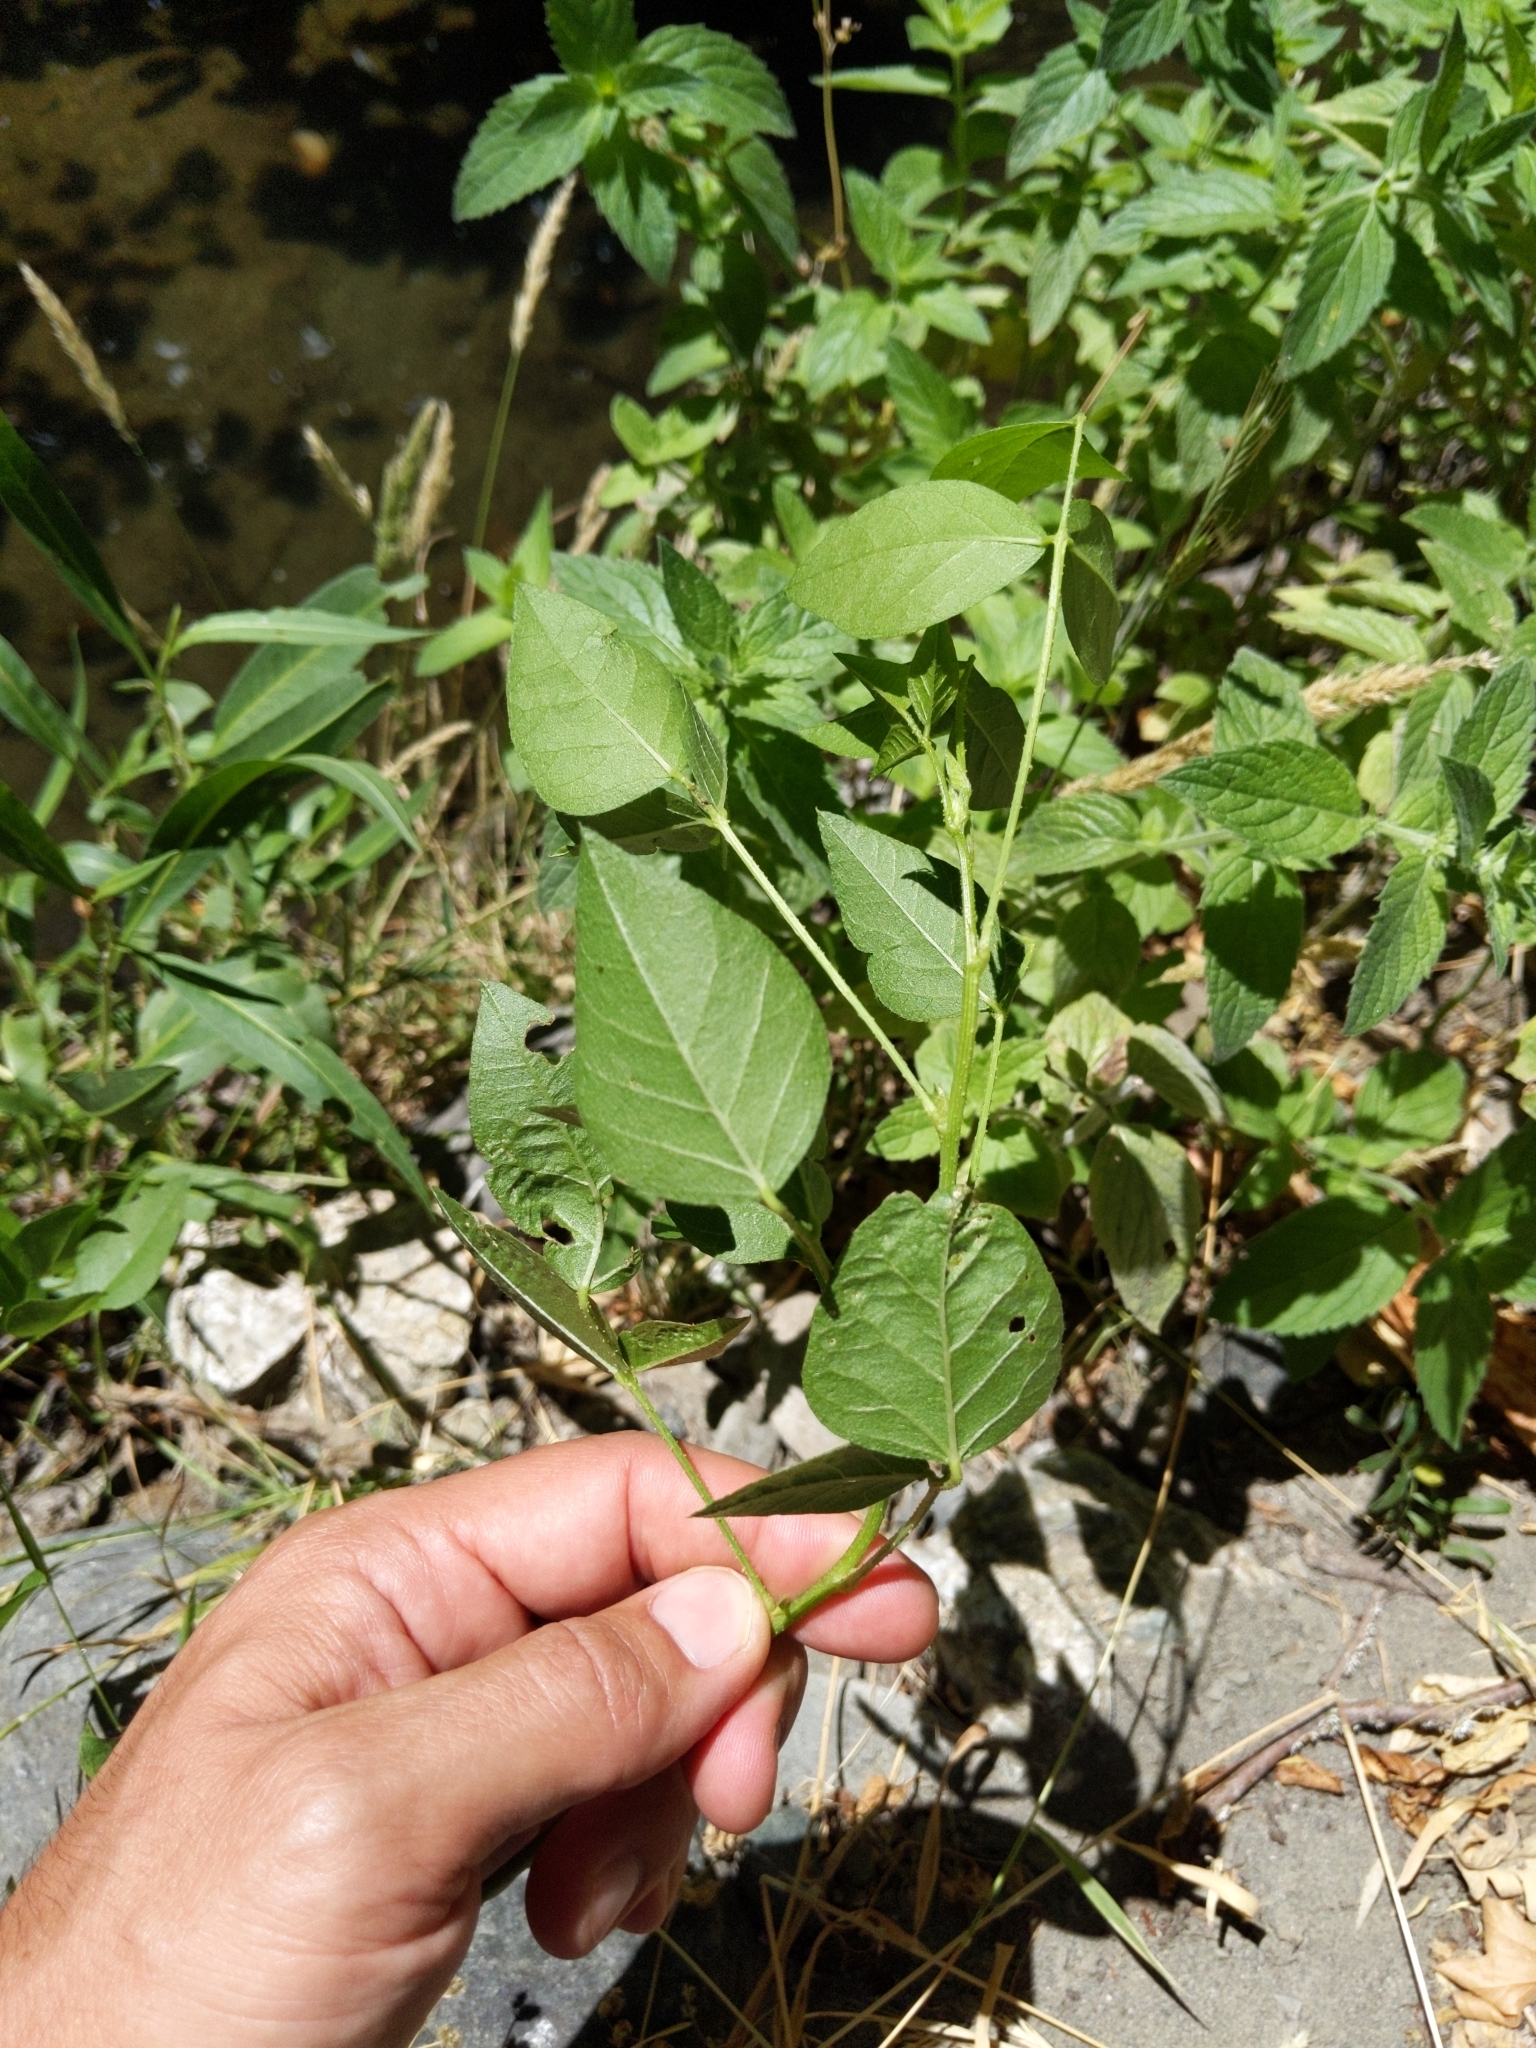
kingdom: Plantae
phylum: Tracheophyta
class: Magnoliopsida
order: Fabales
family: Fabaceae
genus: Hoita
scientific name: Hoita macrostachya
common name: Leatherroot
